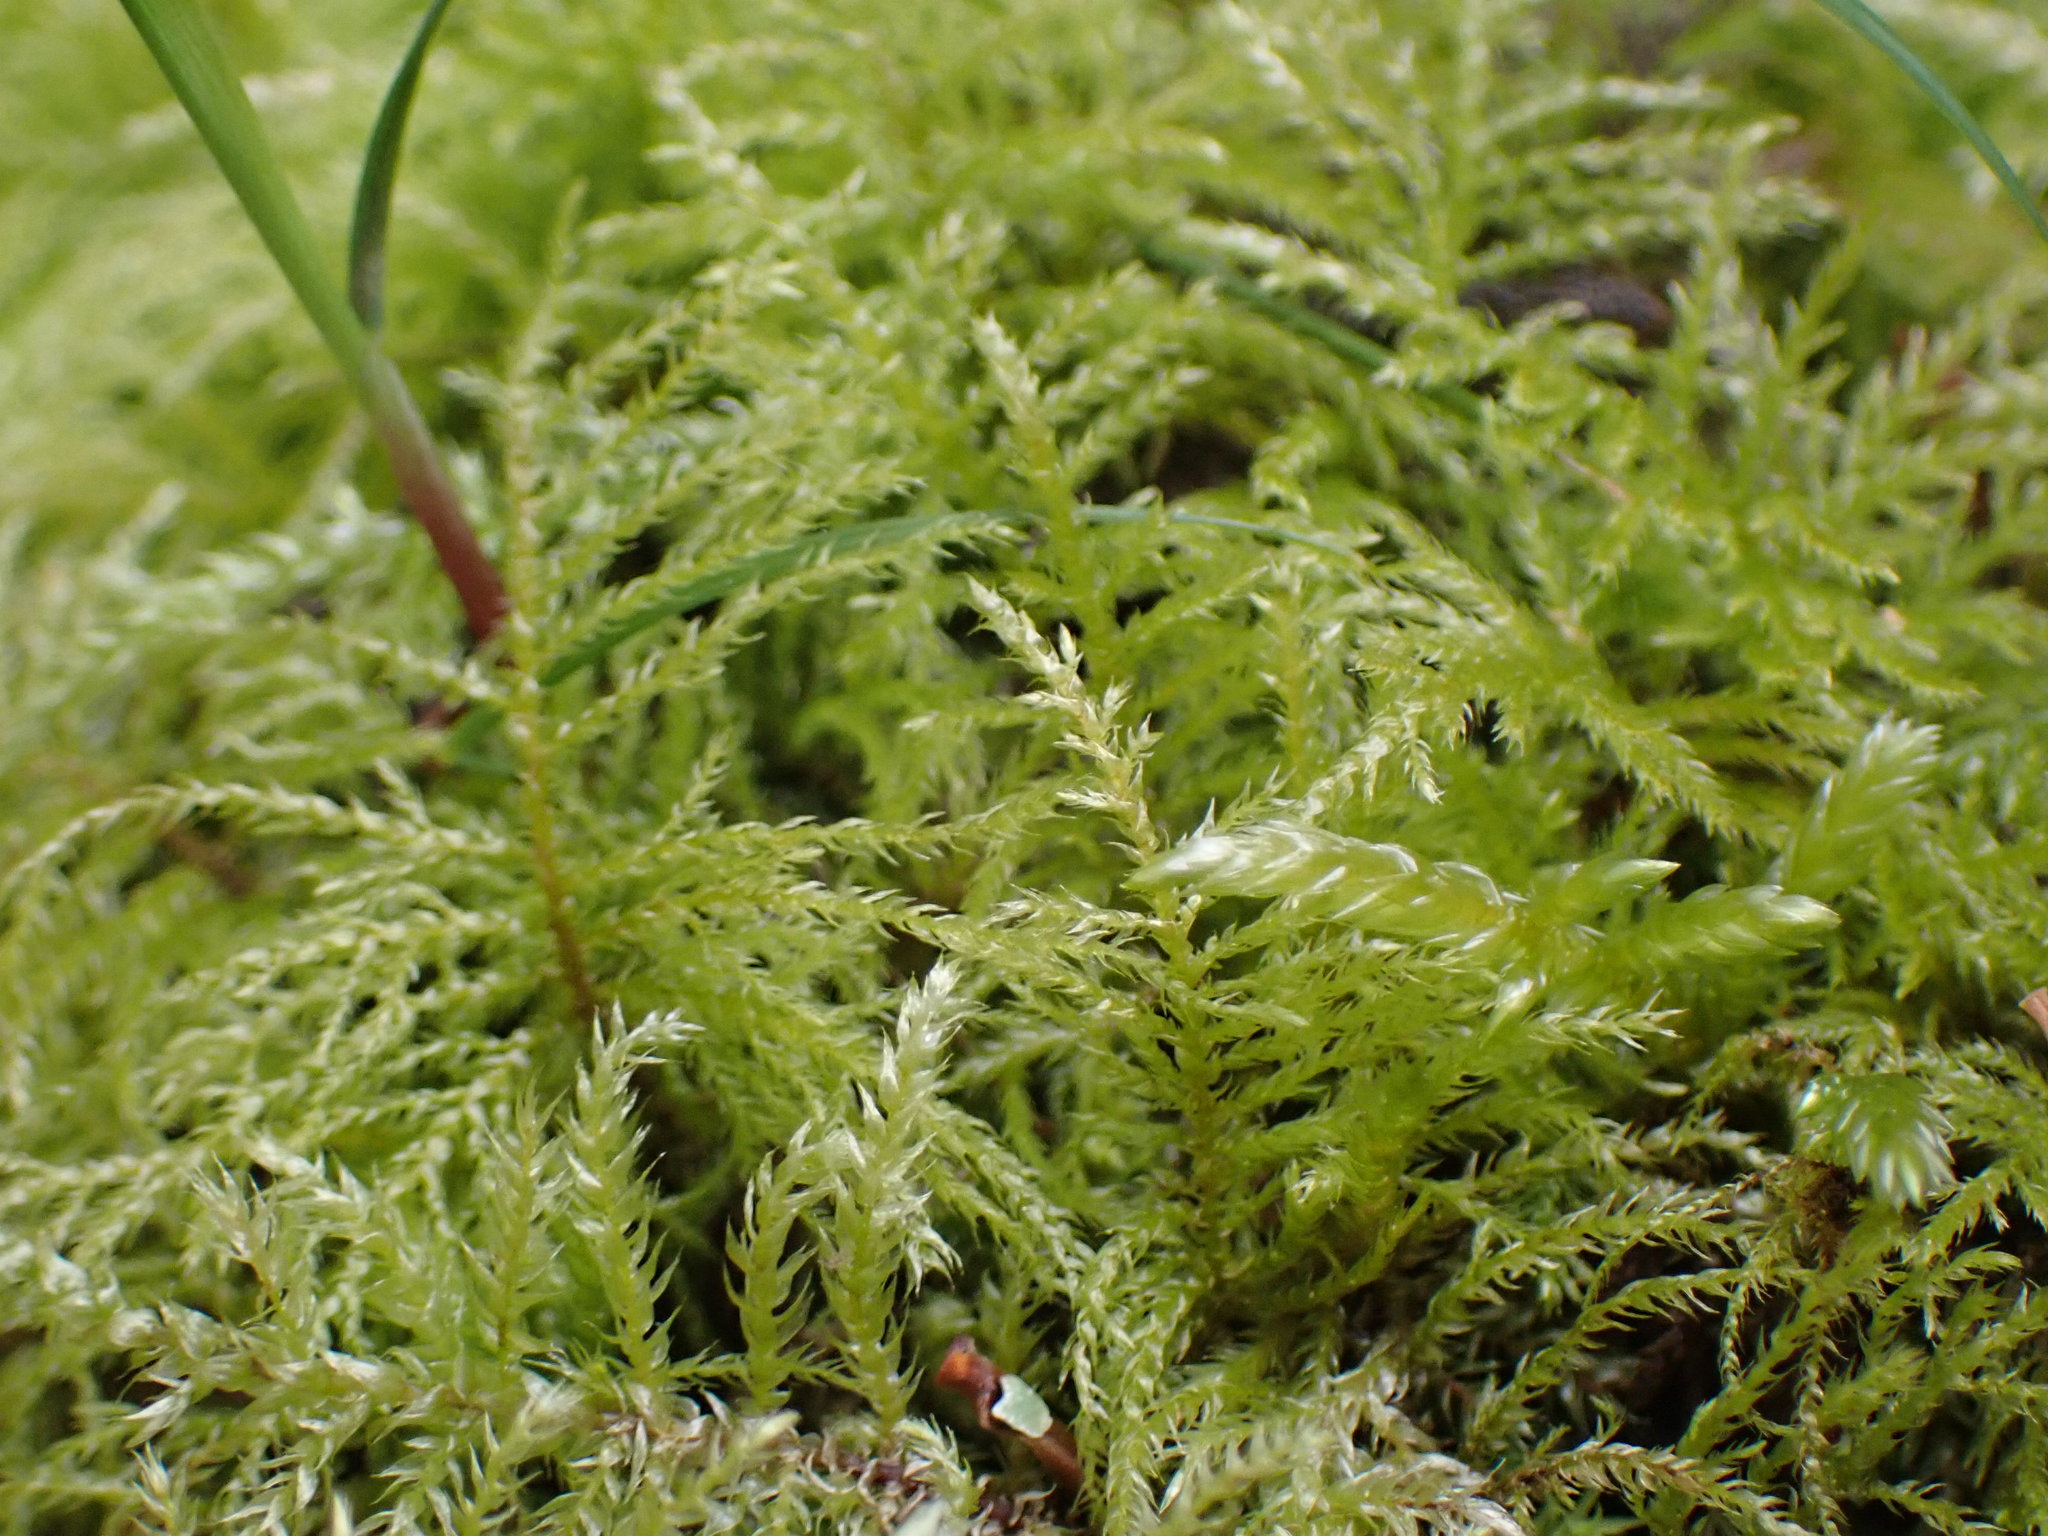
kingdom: Plantae
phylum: Bryophyta
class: Bryopsida
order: Hypnales
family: Brachytheciaceae
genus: Kindbergia
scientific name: Kindbergia oregana
